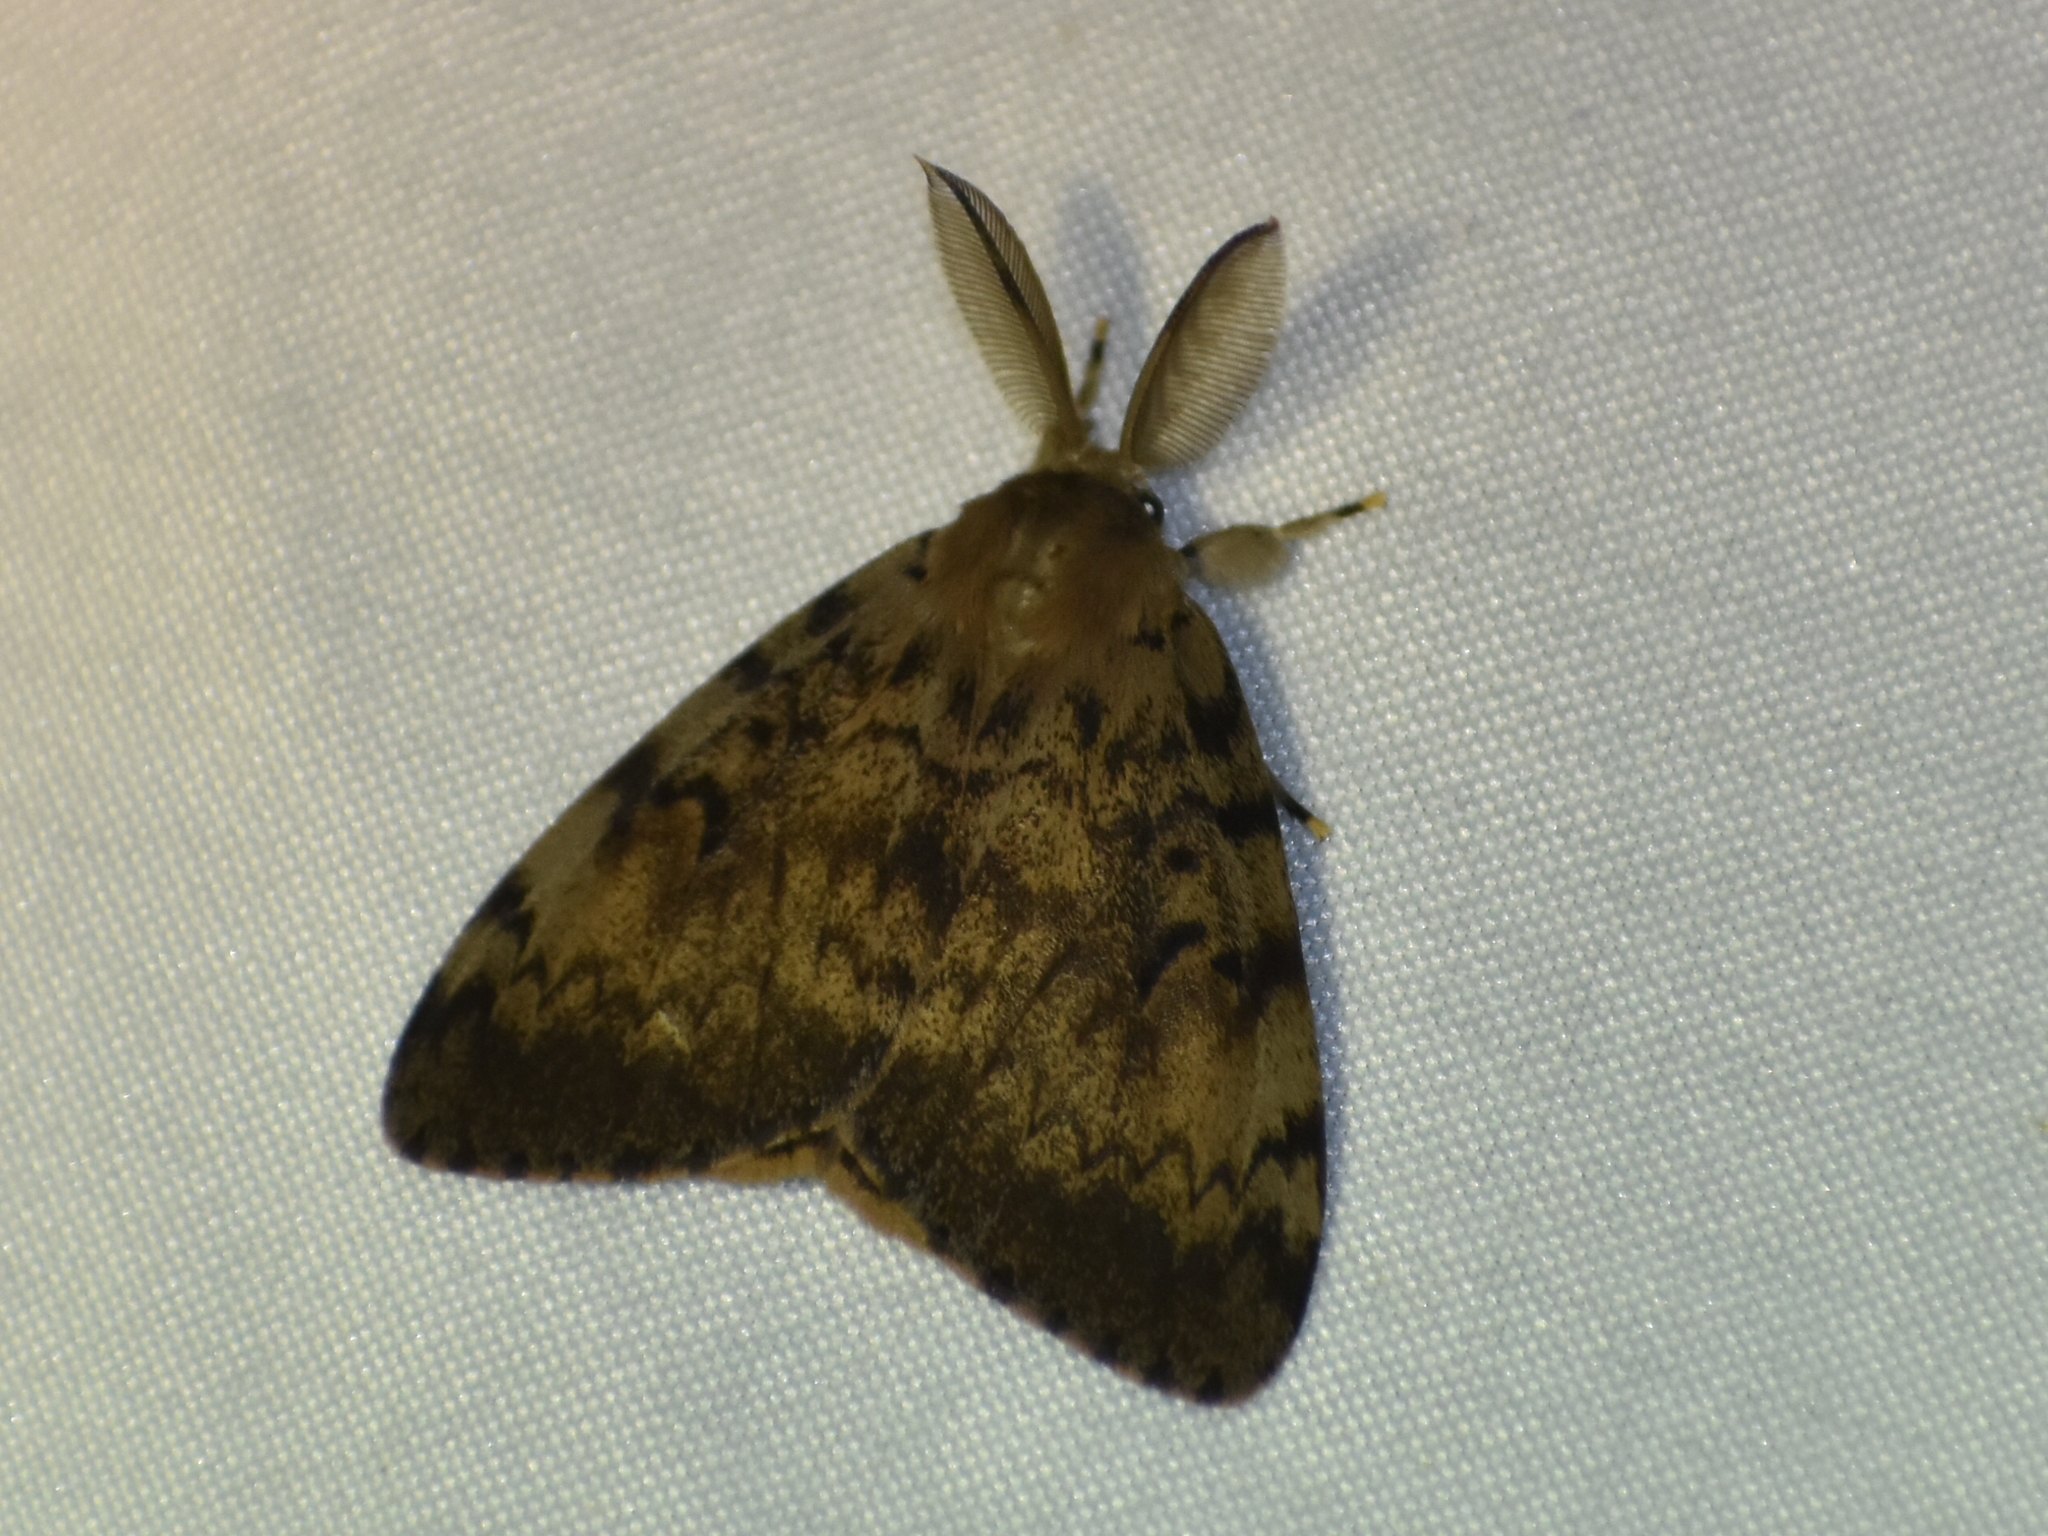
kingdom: Animalia
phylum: Arthropoda
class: Insecta
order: Lepidoptera
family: Erebidae
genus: Lymantria
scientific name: Lymantria dispar
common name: Gypsy moth
